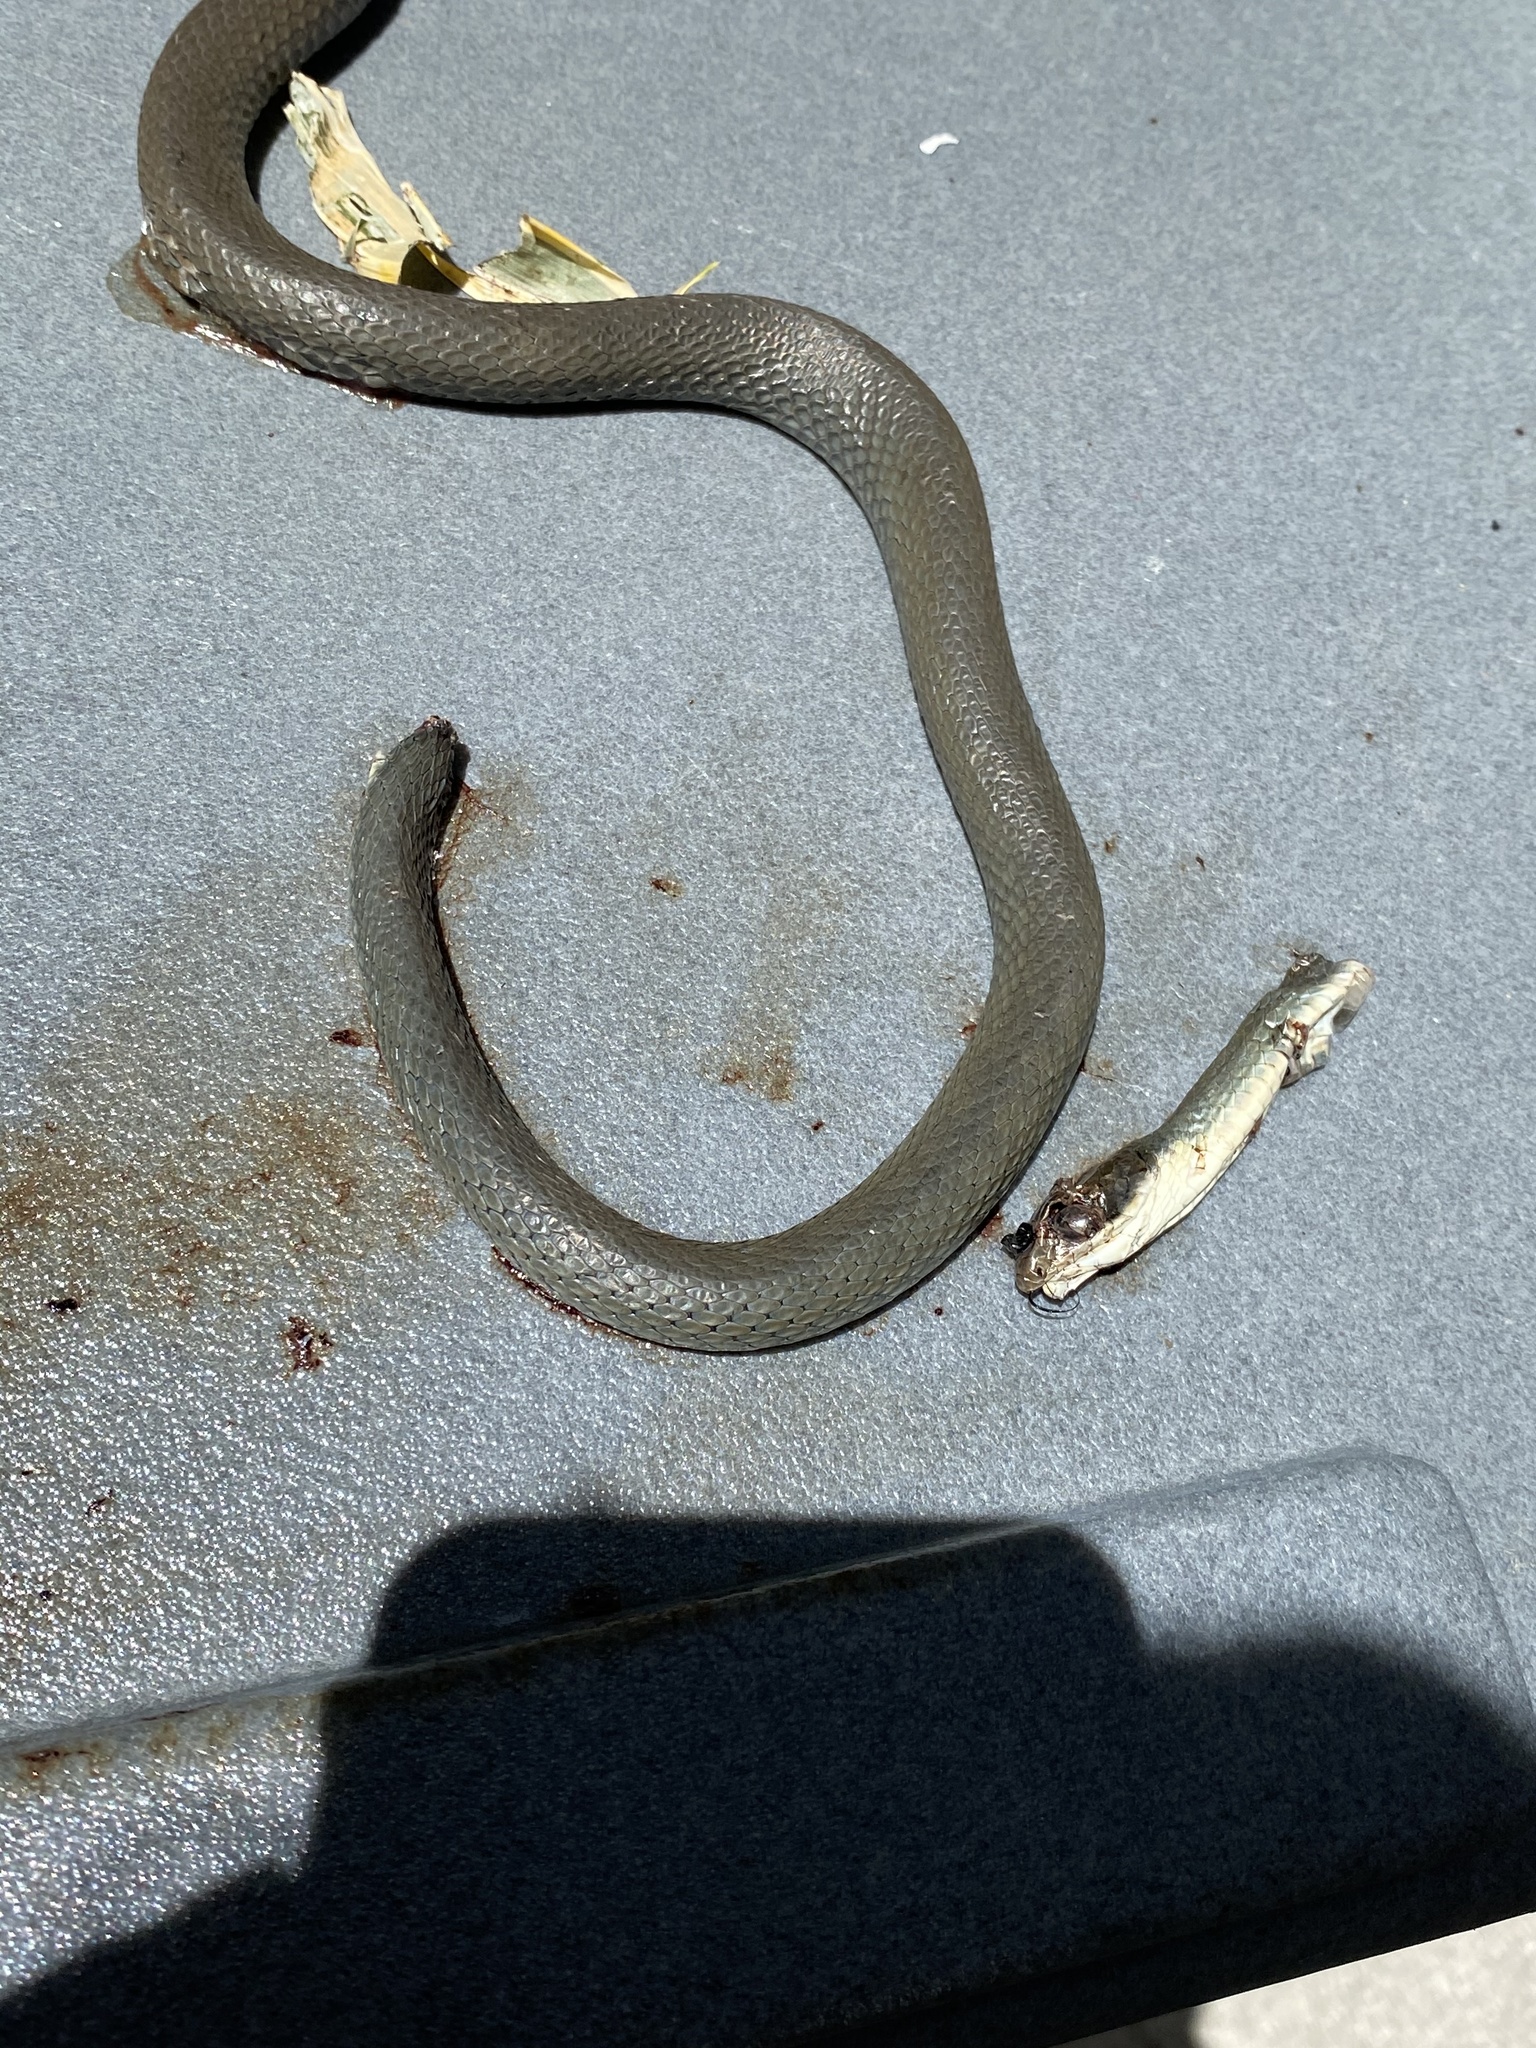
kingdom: Animalia
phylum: Chordata
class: Squamata
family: Colubridae
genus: Coluber
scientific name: Coluber constrictor
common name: Eastern racer
